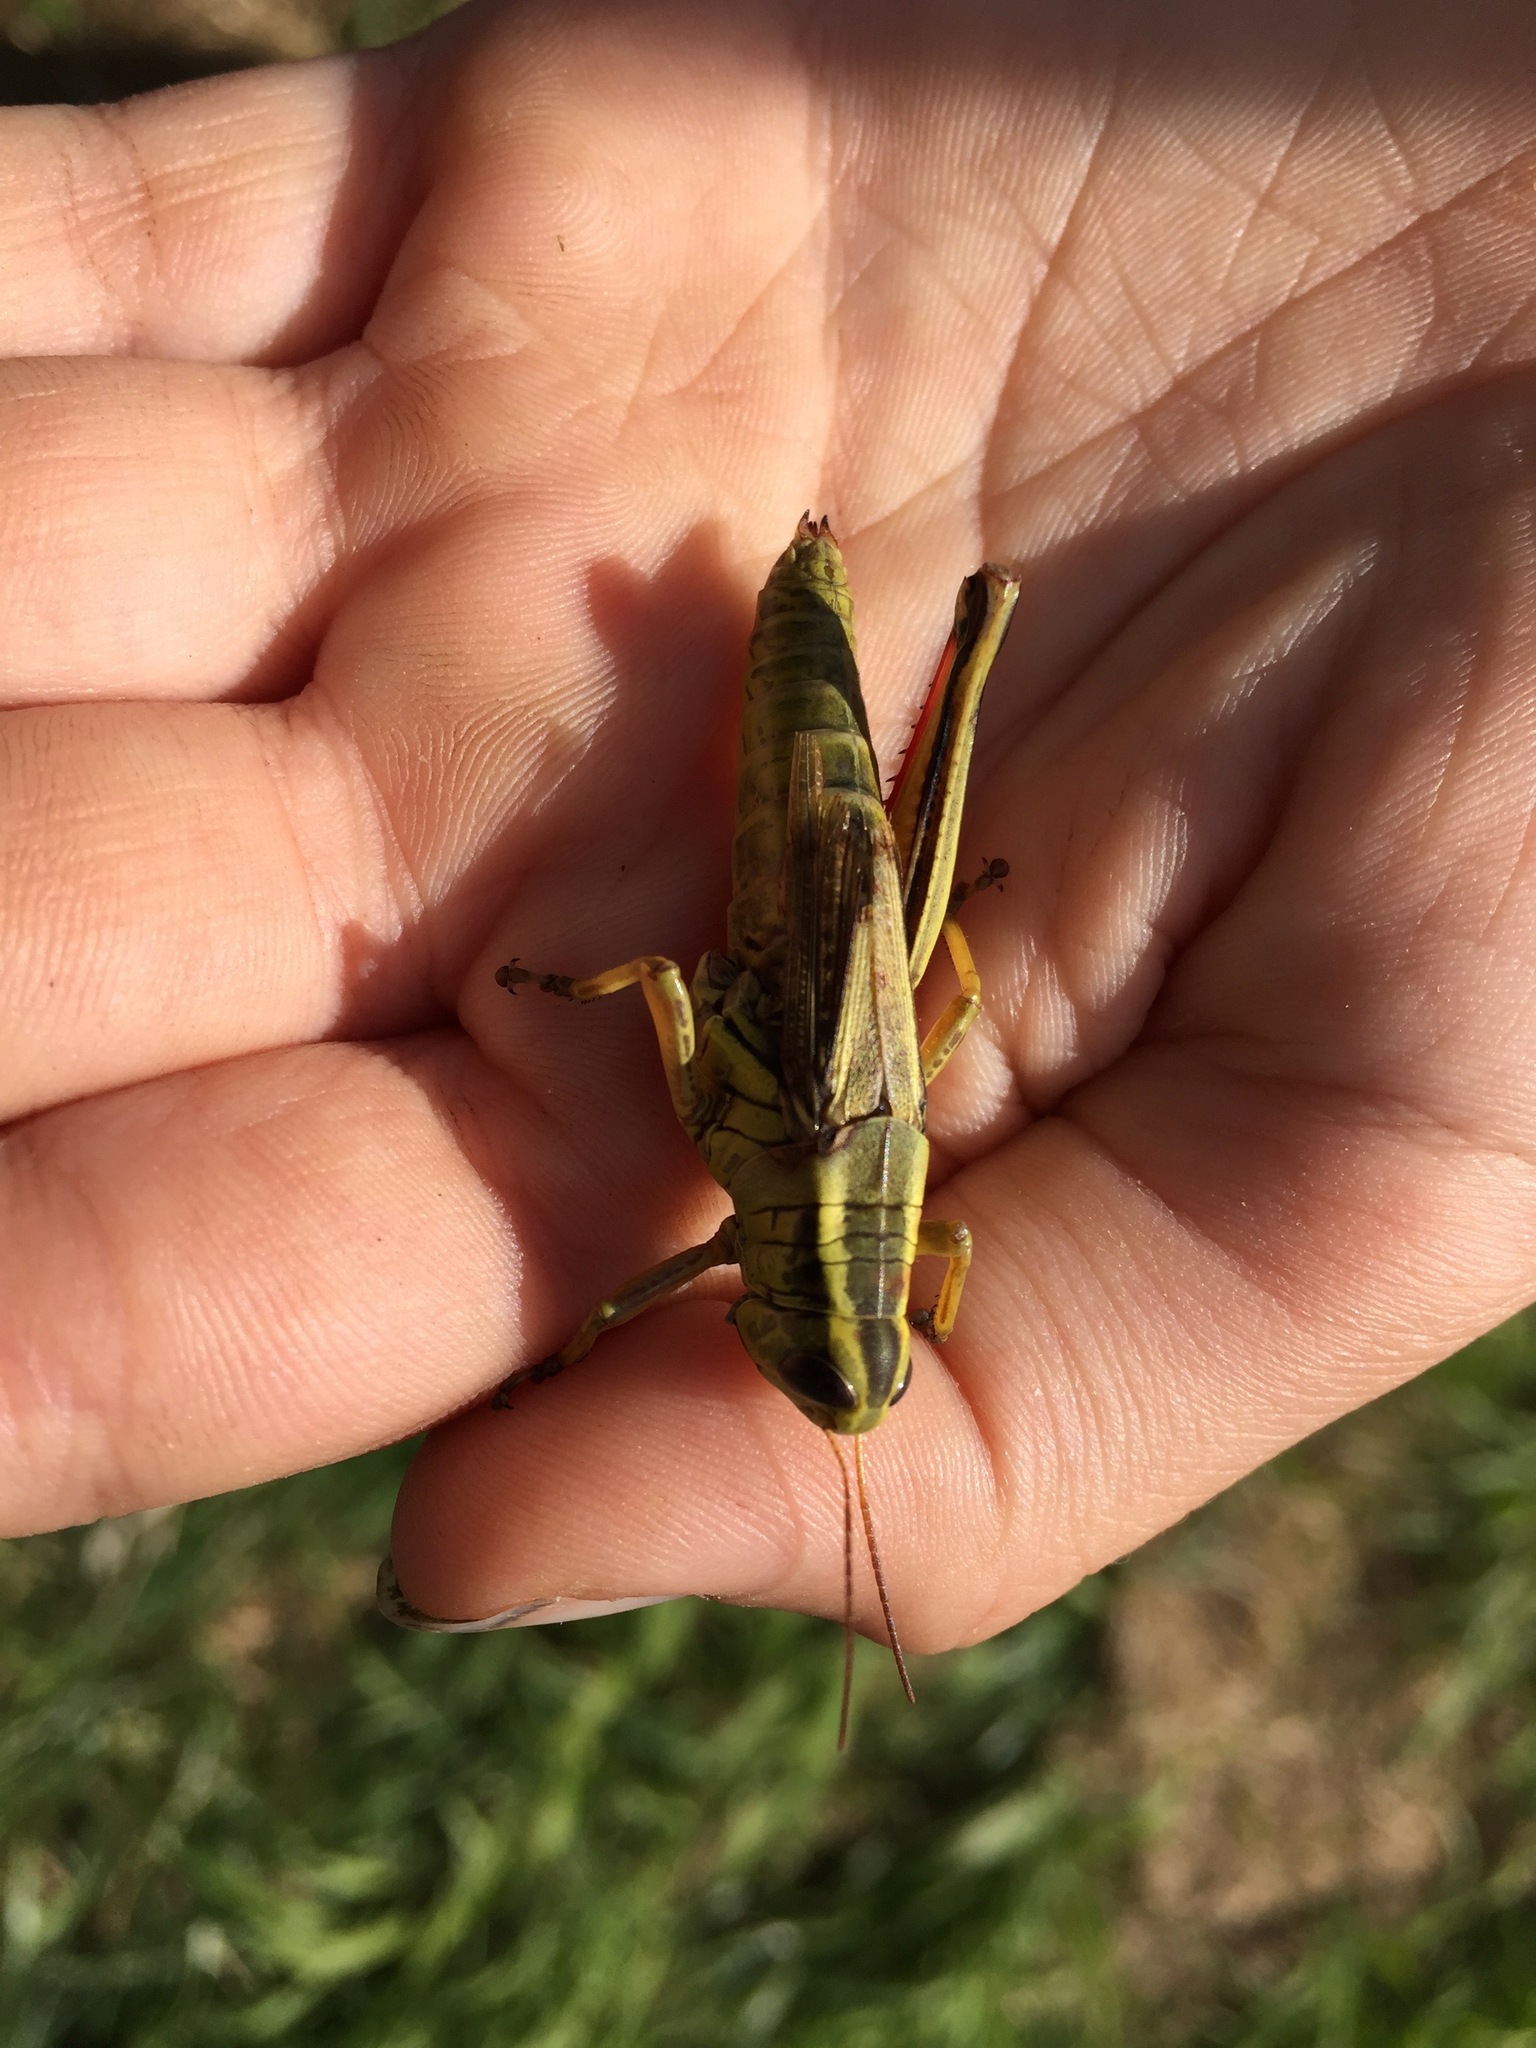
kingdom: Animalia
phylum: Arthropoda
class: Insecta
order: Orthoptera
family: Acrididae
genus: Melanoplus
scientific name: Melanoplus bivittatus
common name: Two-striped grasshopper
